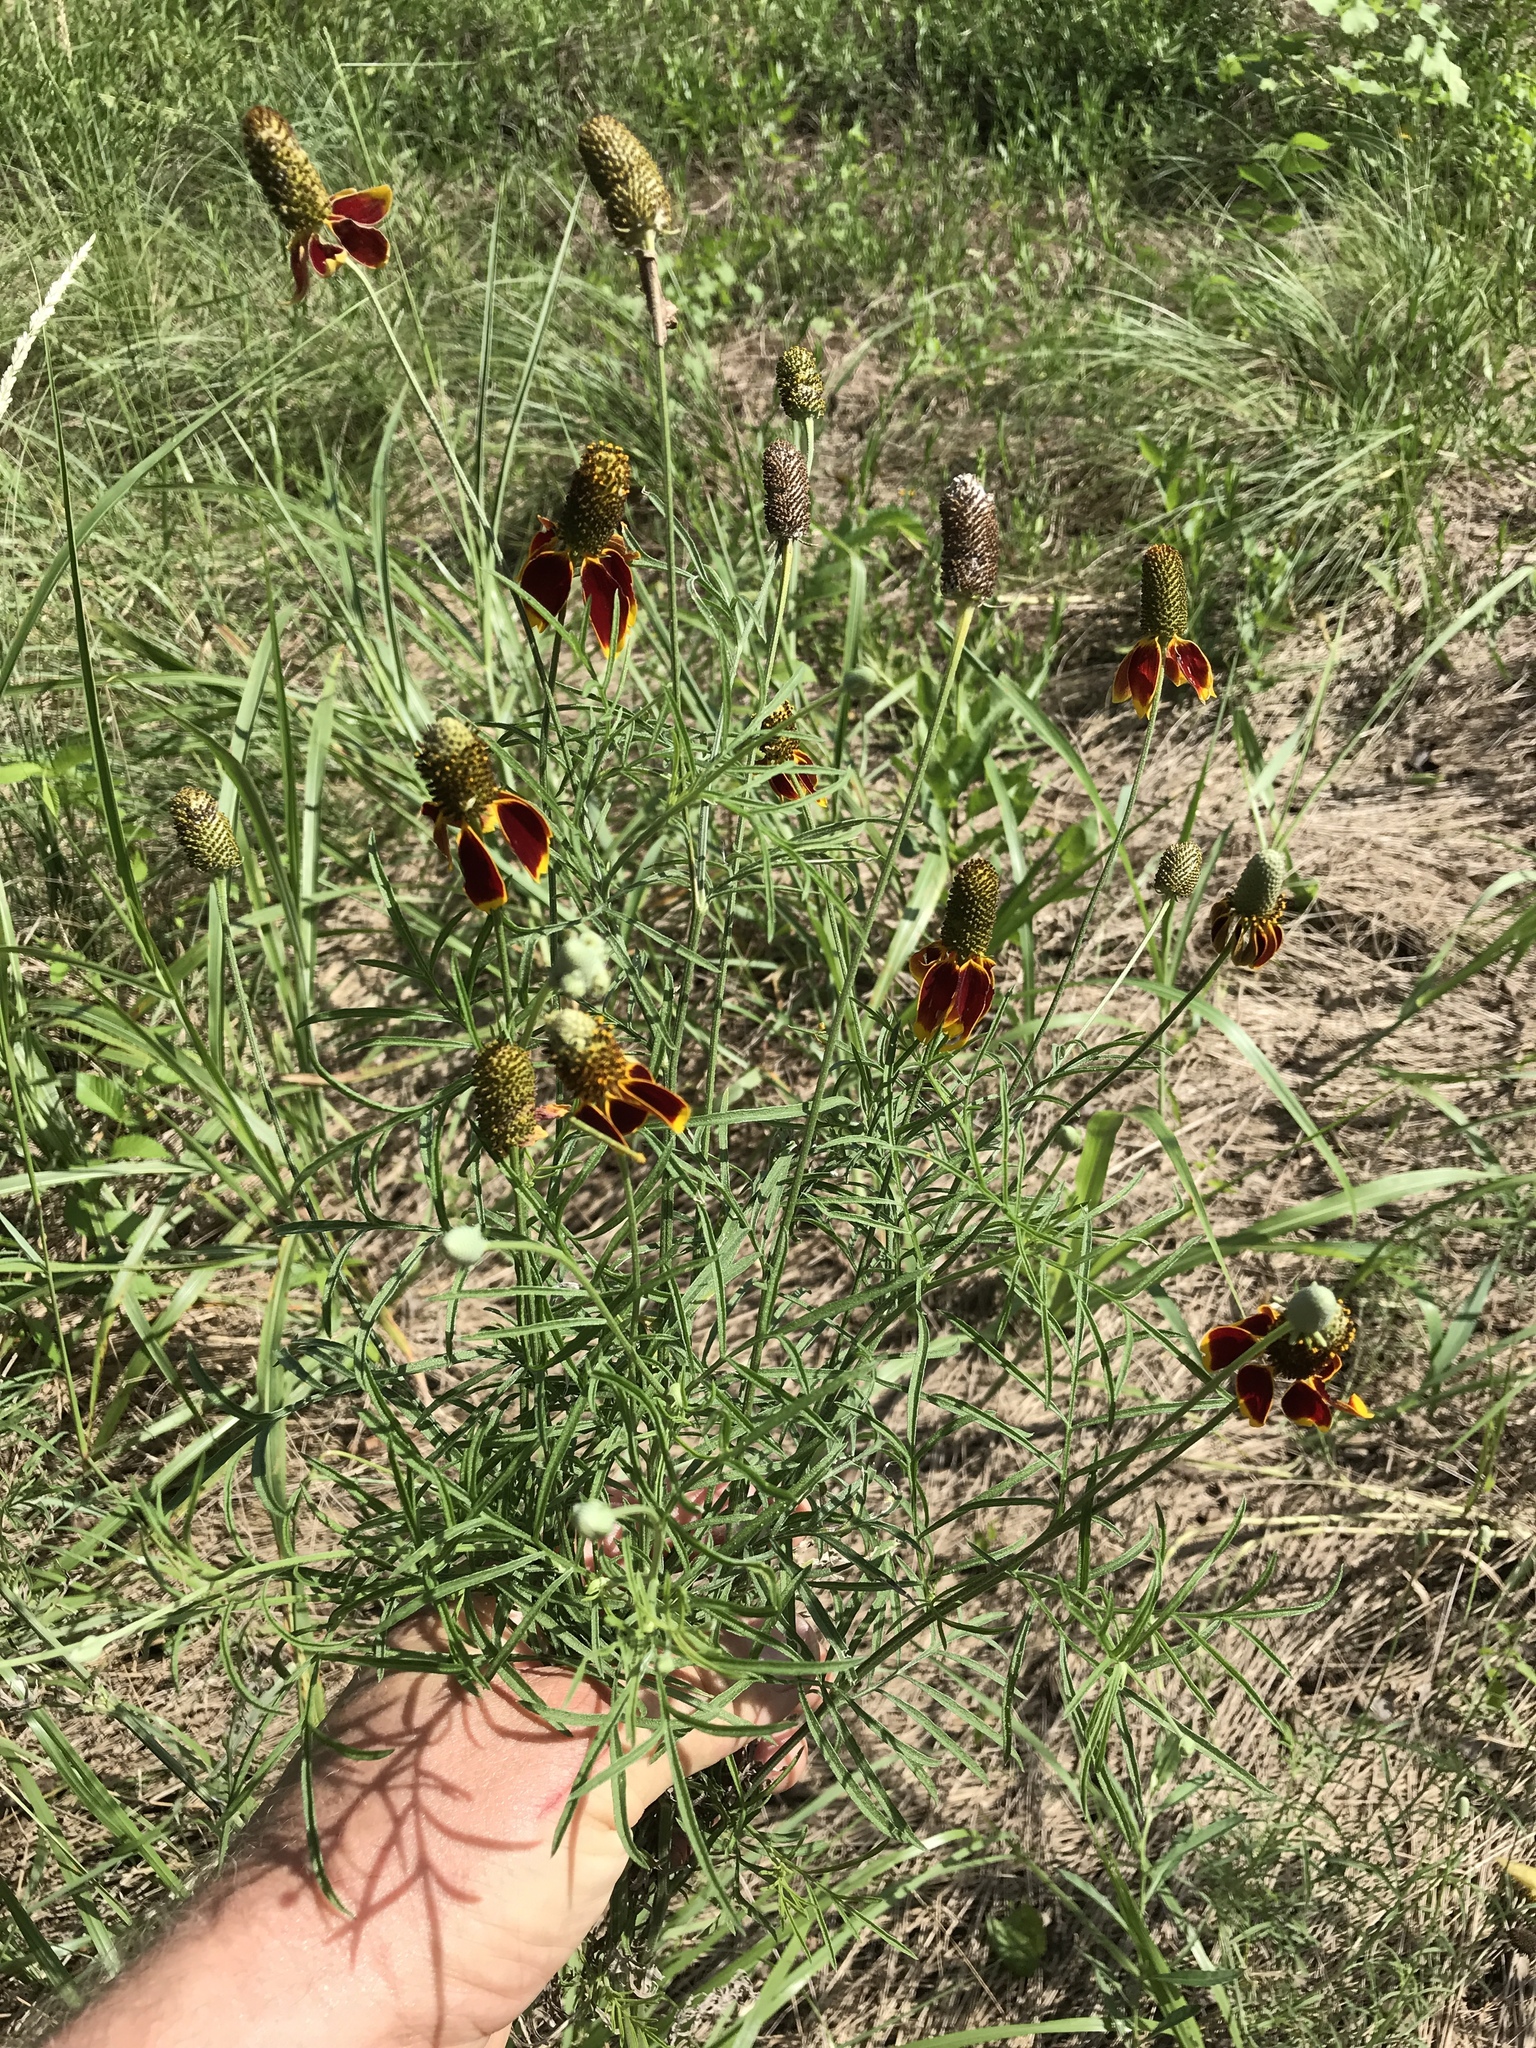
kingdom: Plantae
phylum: Tracheophyta
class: Magnoliopsida
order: Asterales
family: Asteraceae
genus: Ratibida
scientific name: Ratibida columnifera
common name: Prairie coneflower
